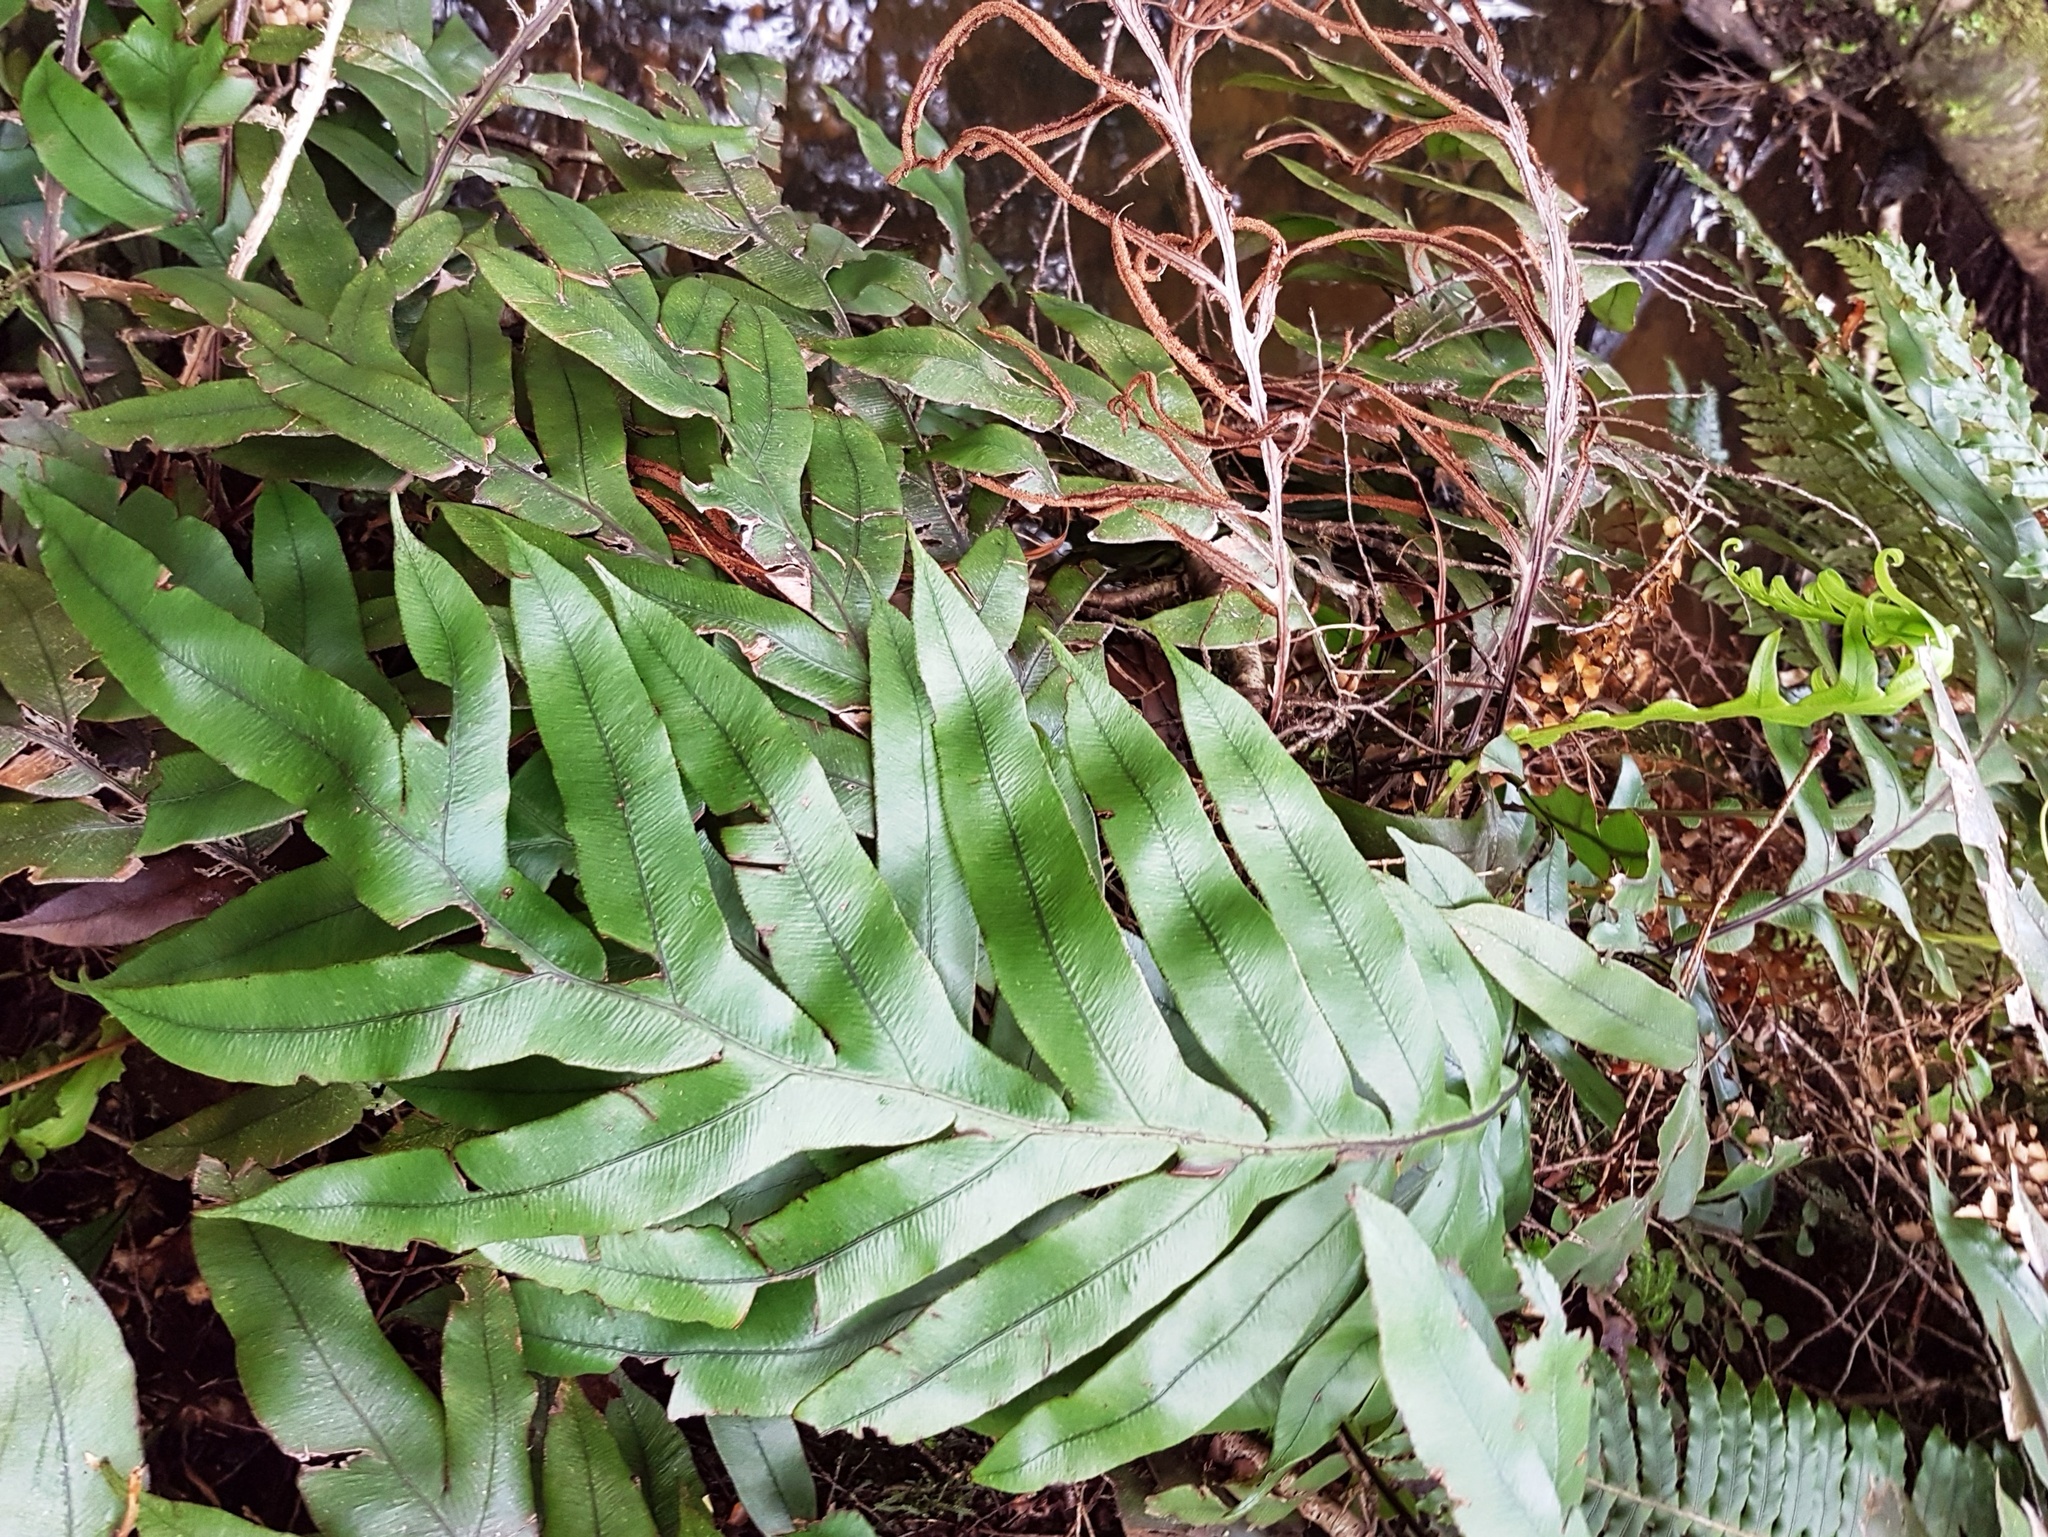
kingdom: Plantae
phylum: Tracheophyta
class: Polypodiopsida
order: Polypodiales
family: Blechnaceae
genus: Austroblechnum
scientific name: Austroblechnum colensoi
